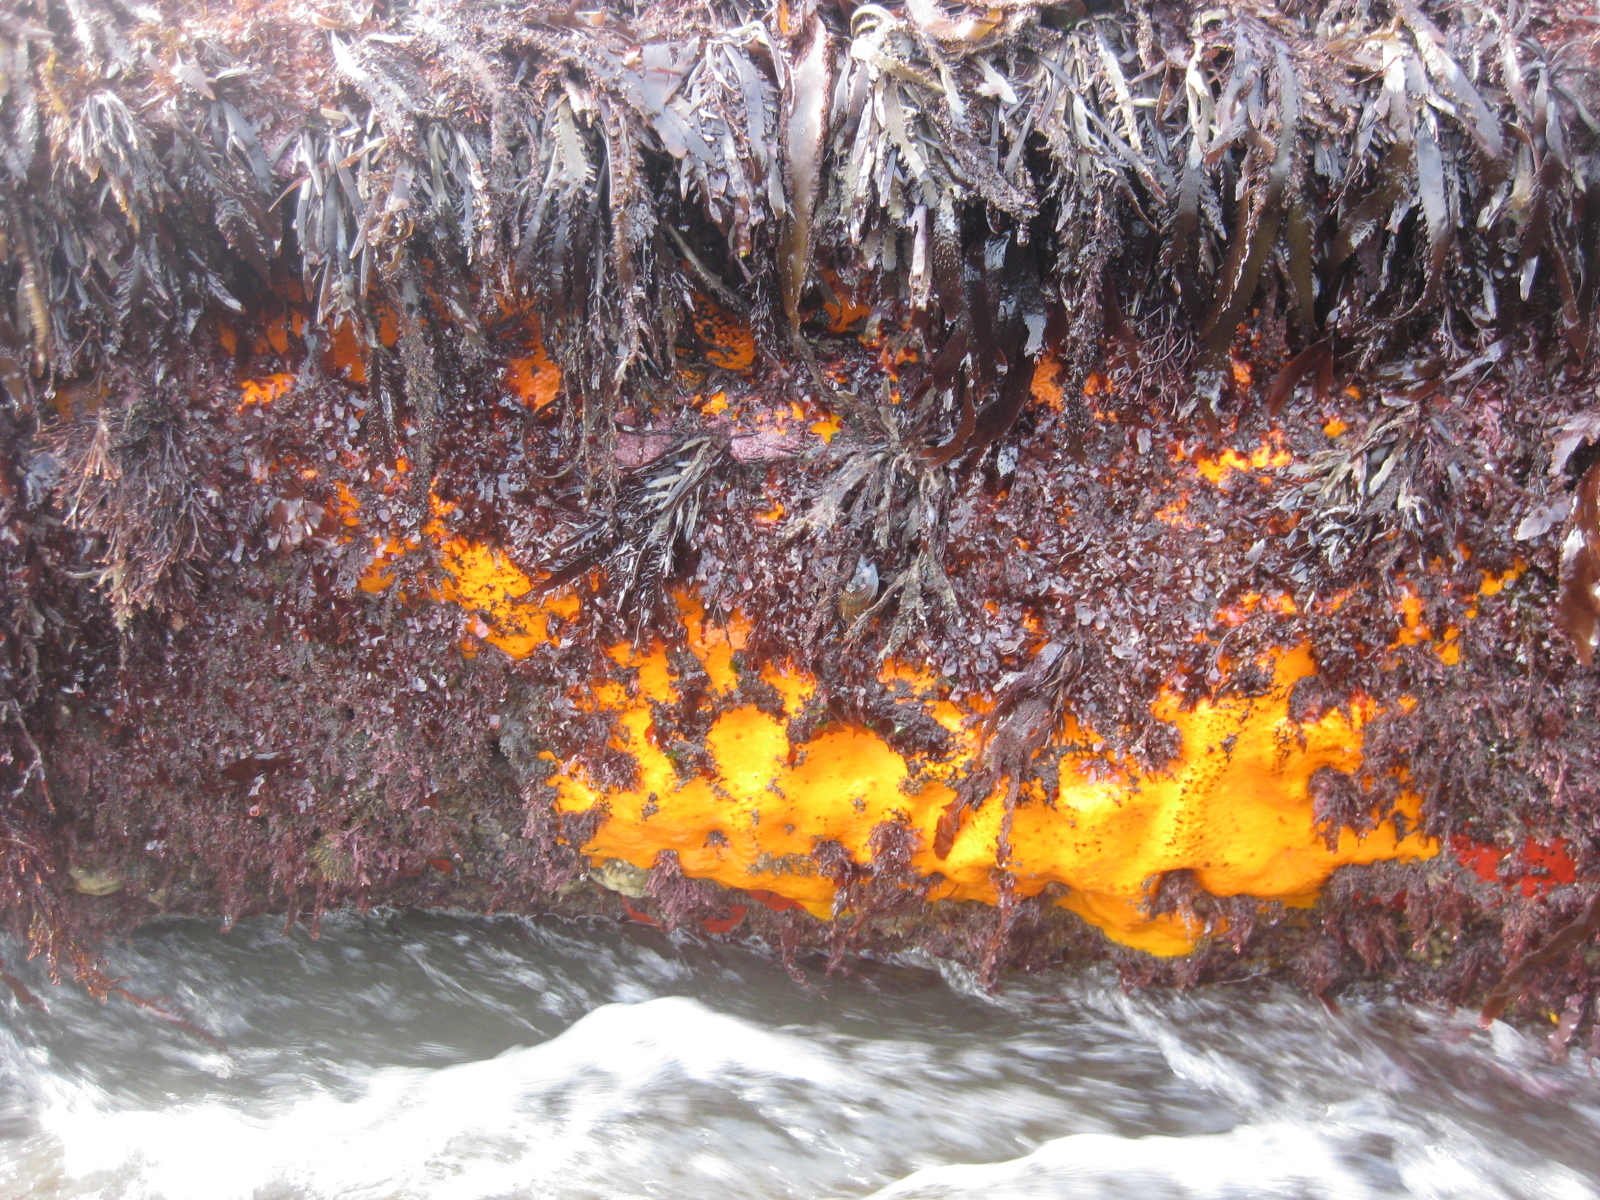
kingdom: Animalia
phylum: Porifera
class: Demospongiae
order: Clionaida
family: Clionaidae
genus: Cliona
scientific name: Cliona celata
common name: Boring sponge
